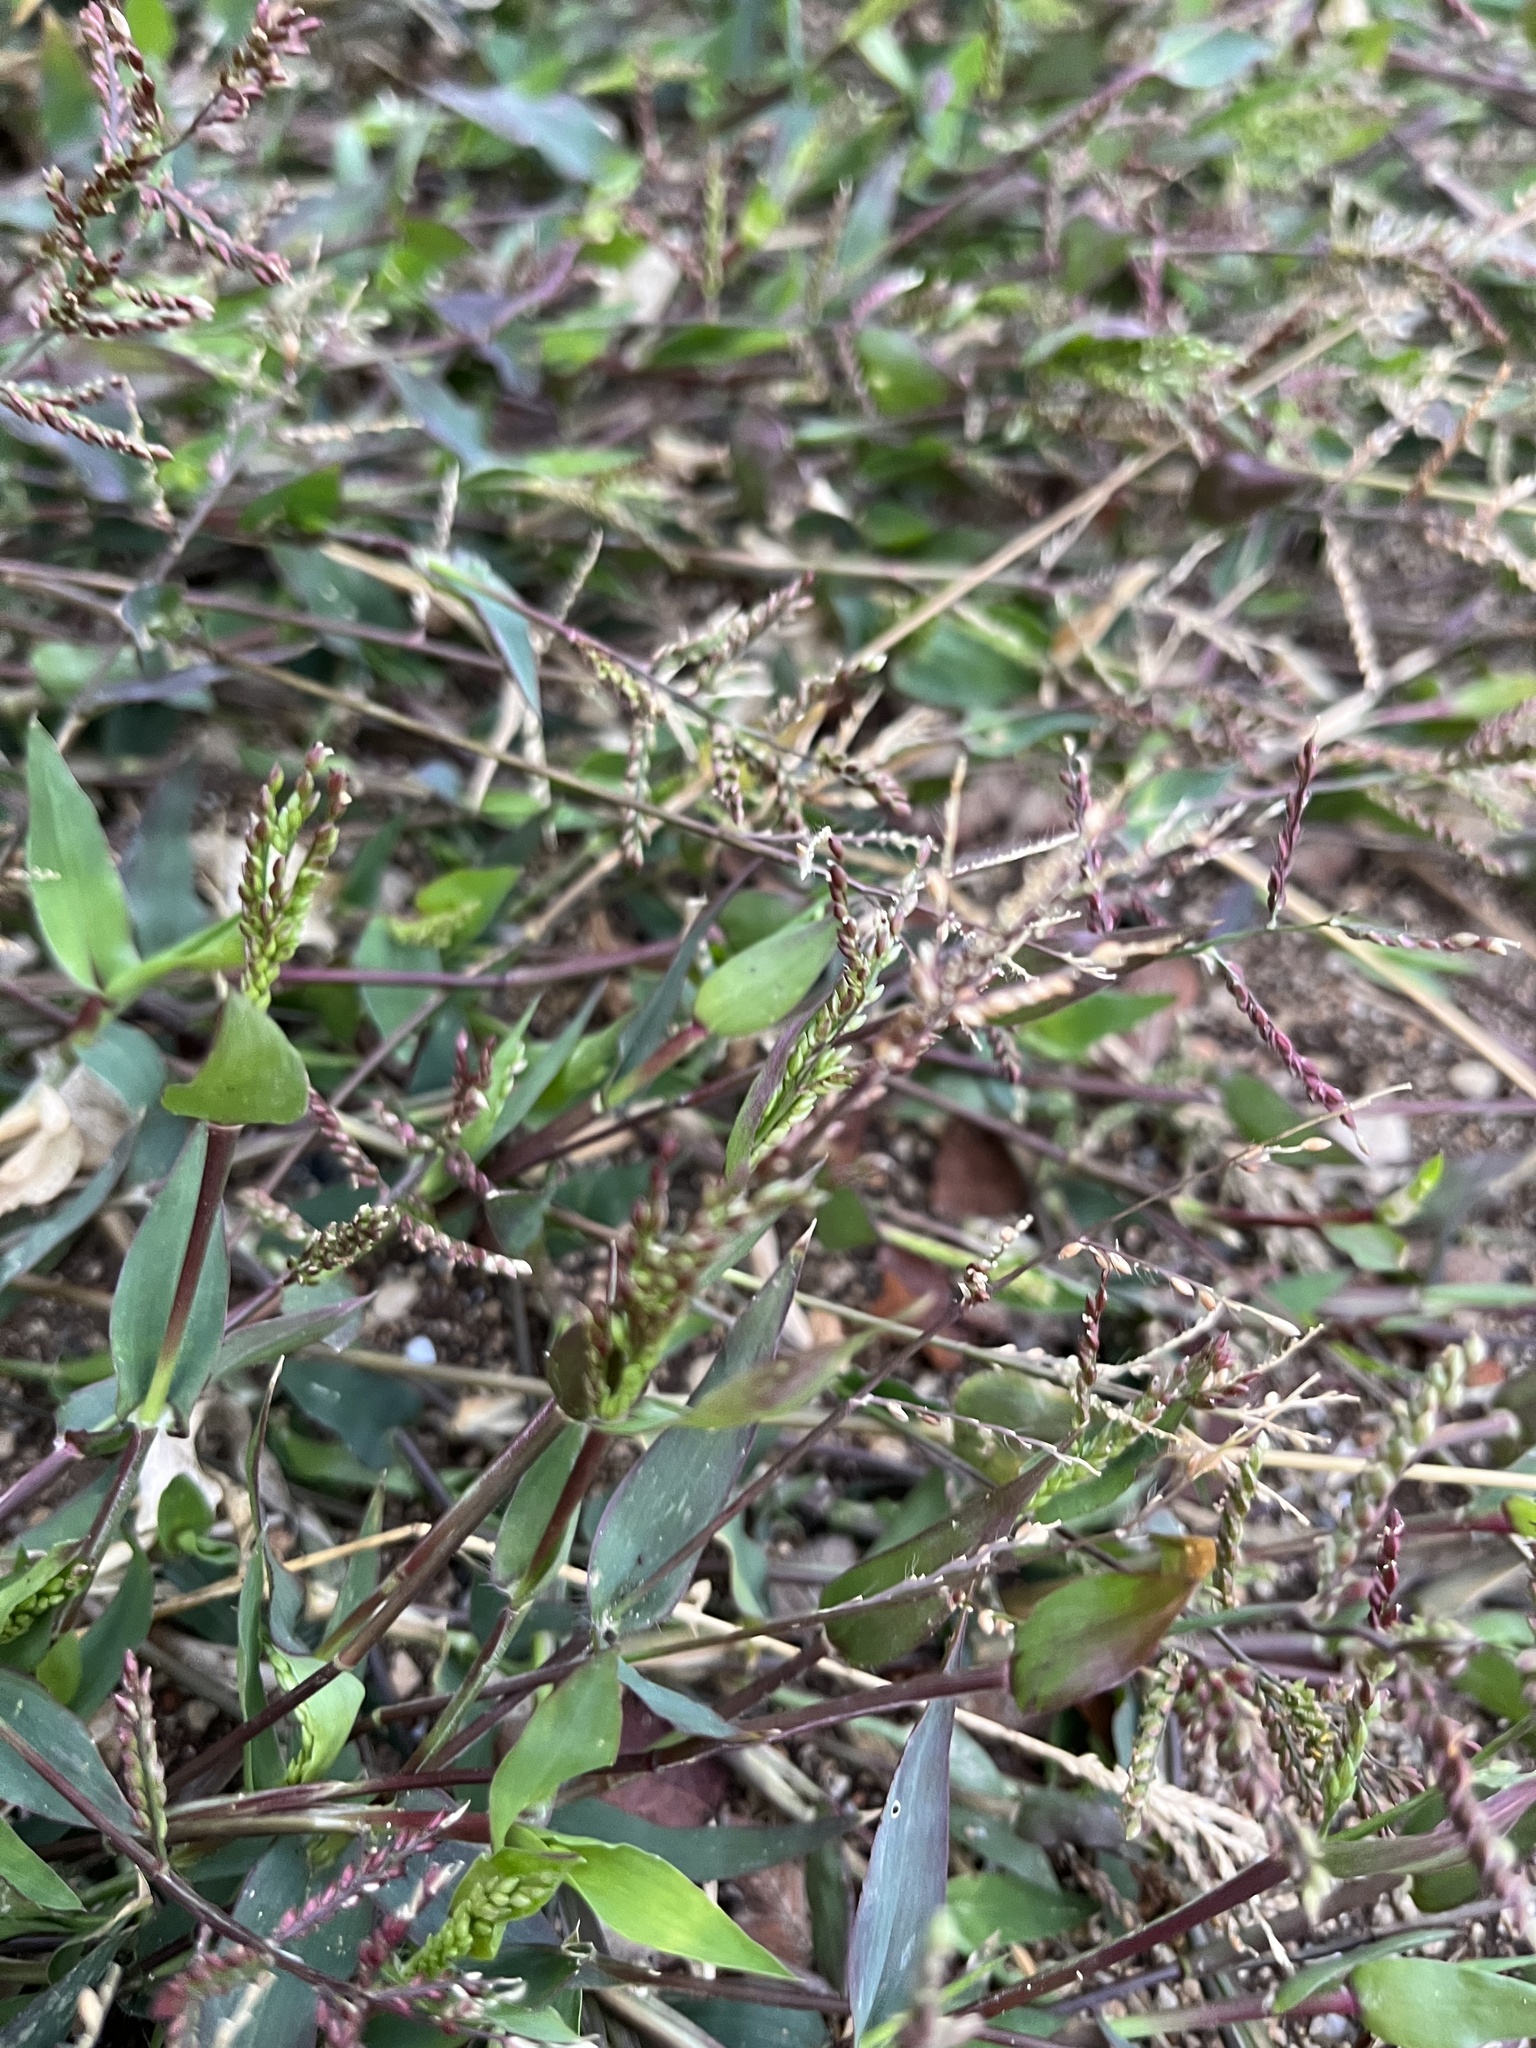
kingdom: Plantae
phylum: Tracheophyta
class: Liliopsida
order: Poales
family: Poaceae
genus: Urochloa
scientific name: Urochloa reptans
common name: Sprawling signalgrass
